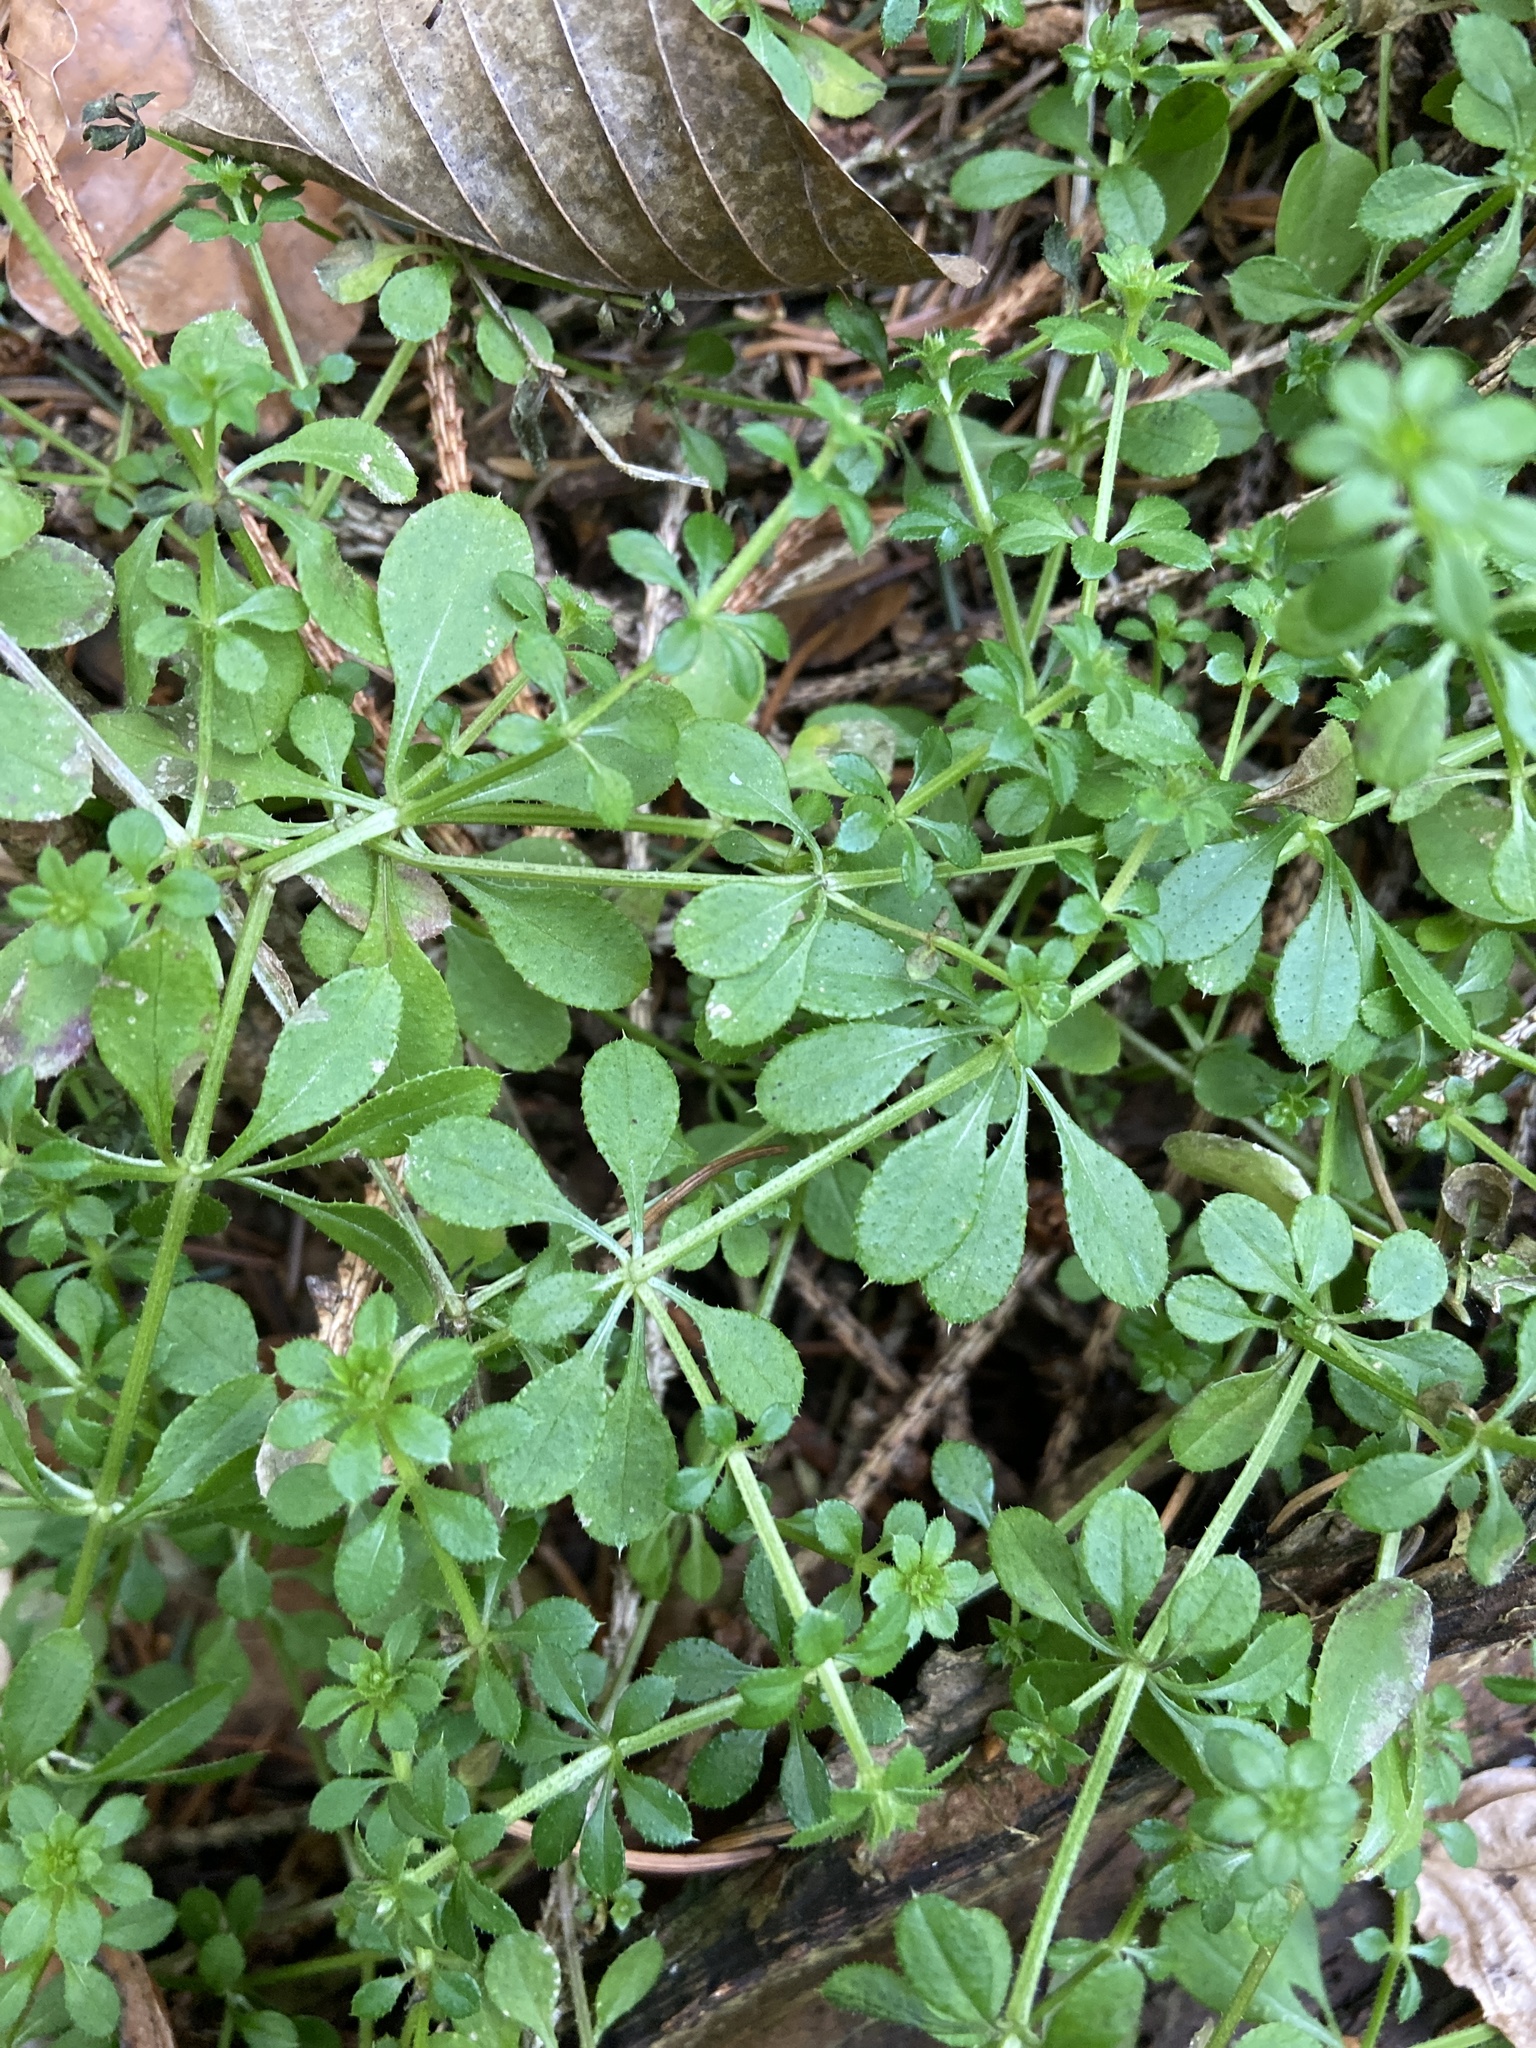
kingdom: Plantae
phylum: Tracheophyta
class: Magnoliopsida
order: Gentianales
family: Rubiaceae
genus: Galium
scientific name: Galium aparine
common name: Cleavers
